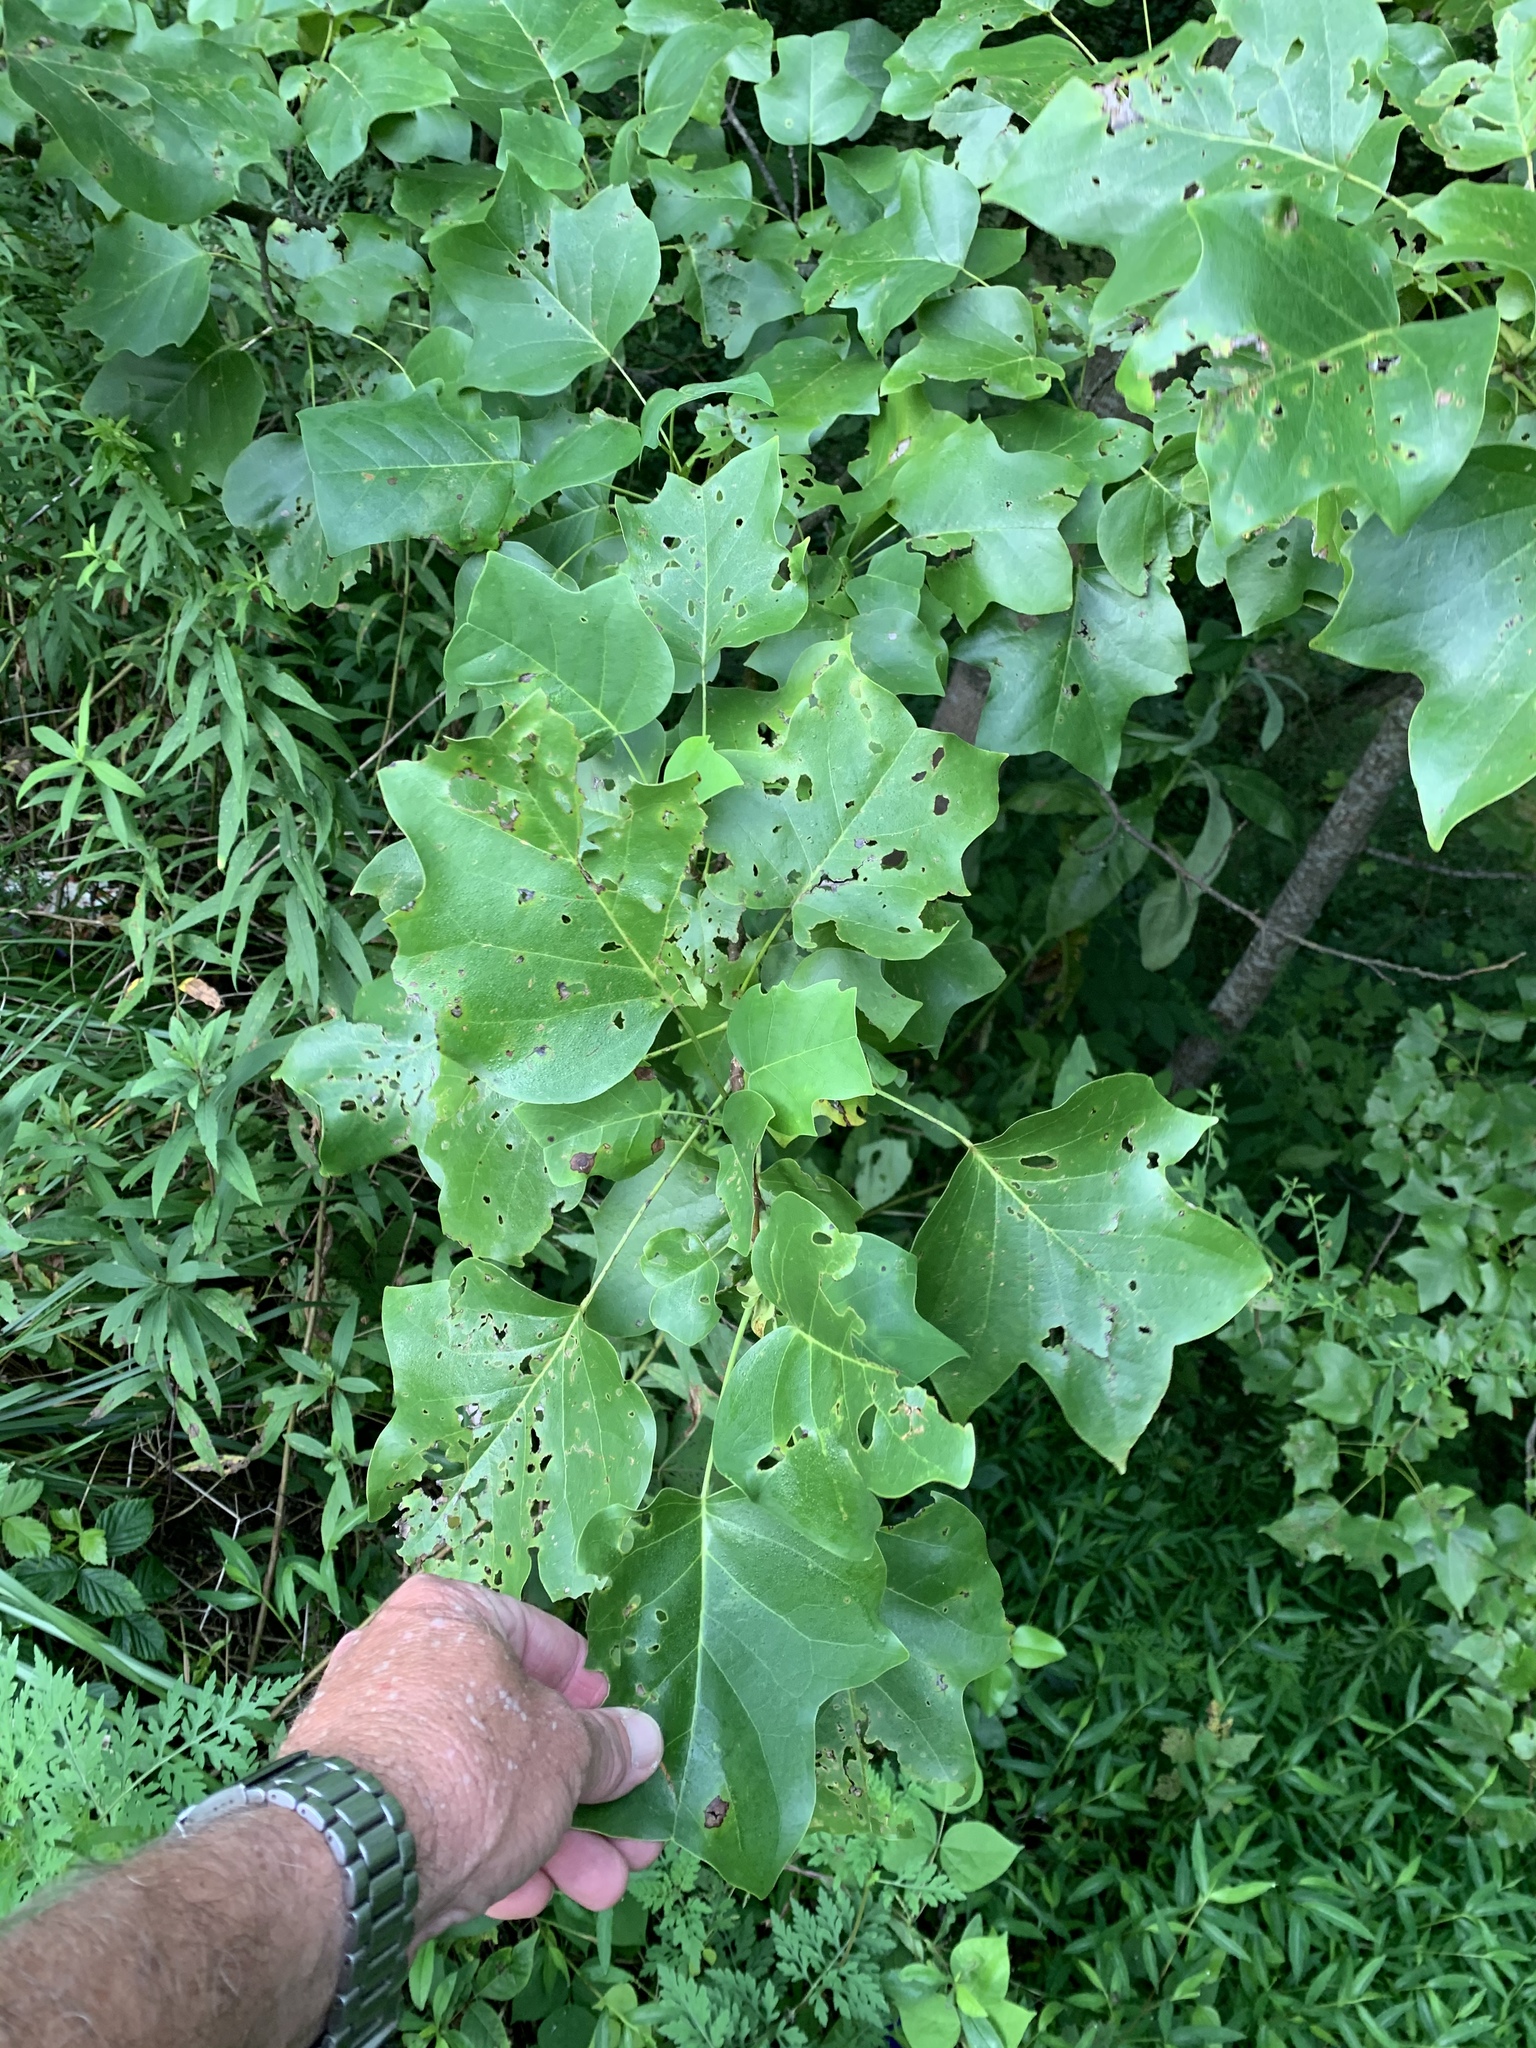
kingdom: Plantae
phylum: Tracheophyta
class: Magnoliopsida
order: Magnoliales
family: Magnoliaceae
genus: Liriodendron
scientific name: Liriodendron tulipifera
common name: Tulip tree
